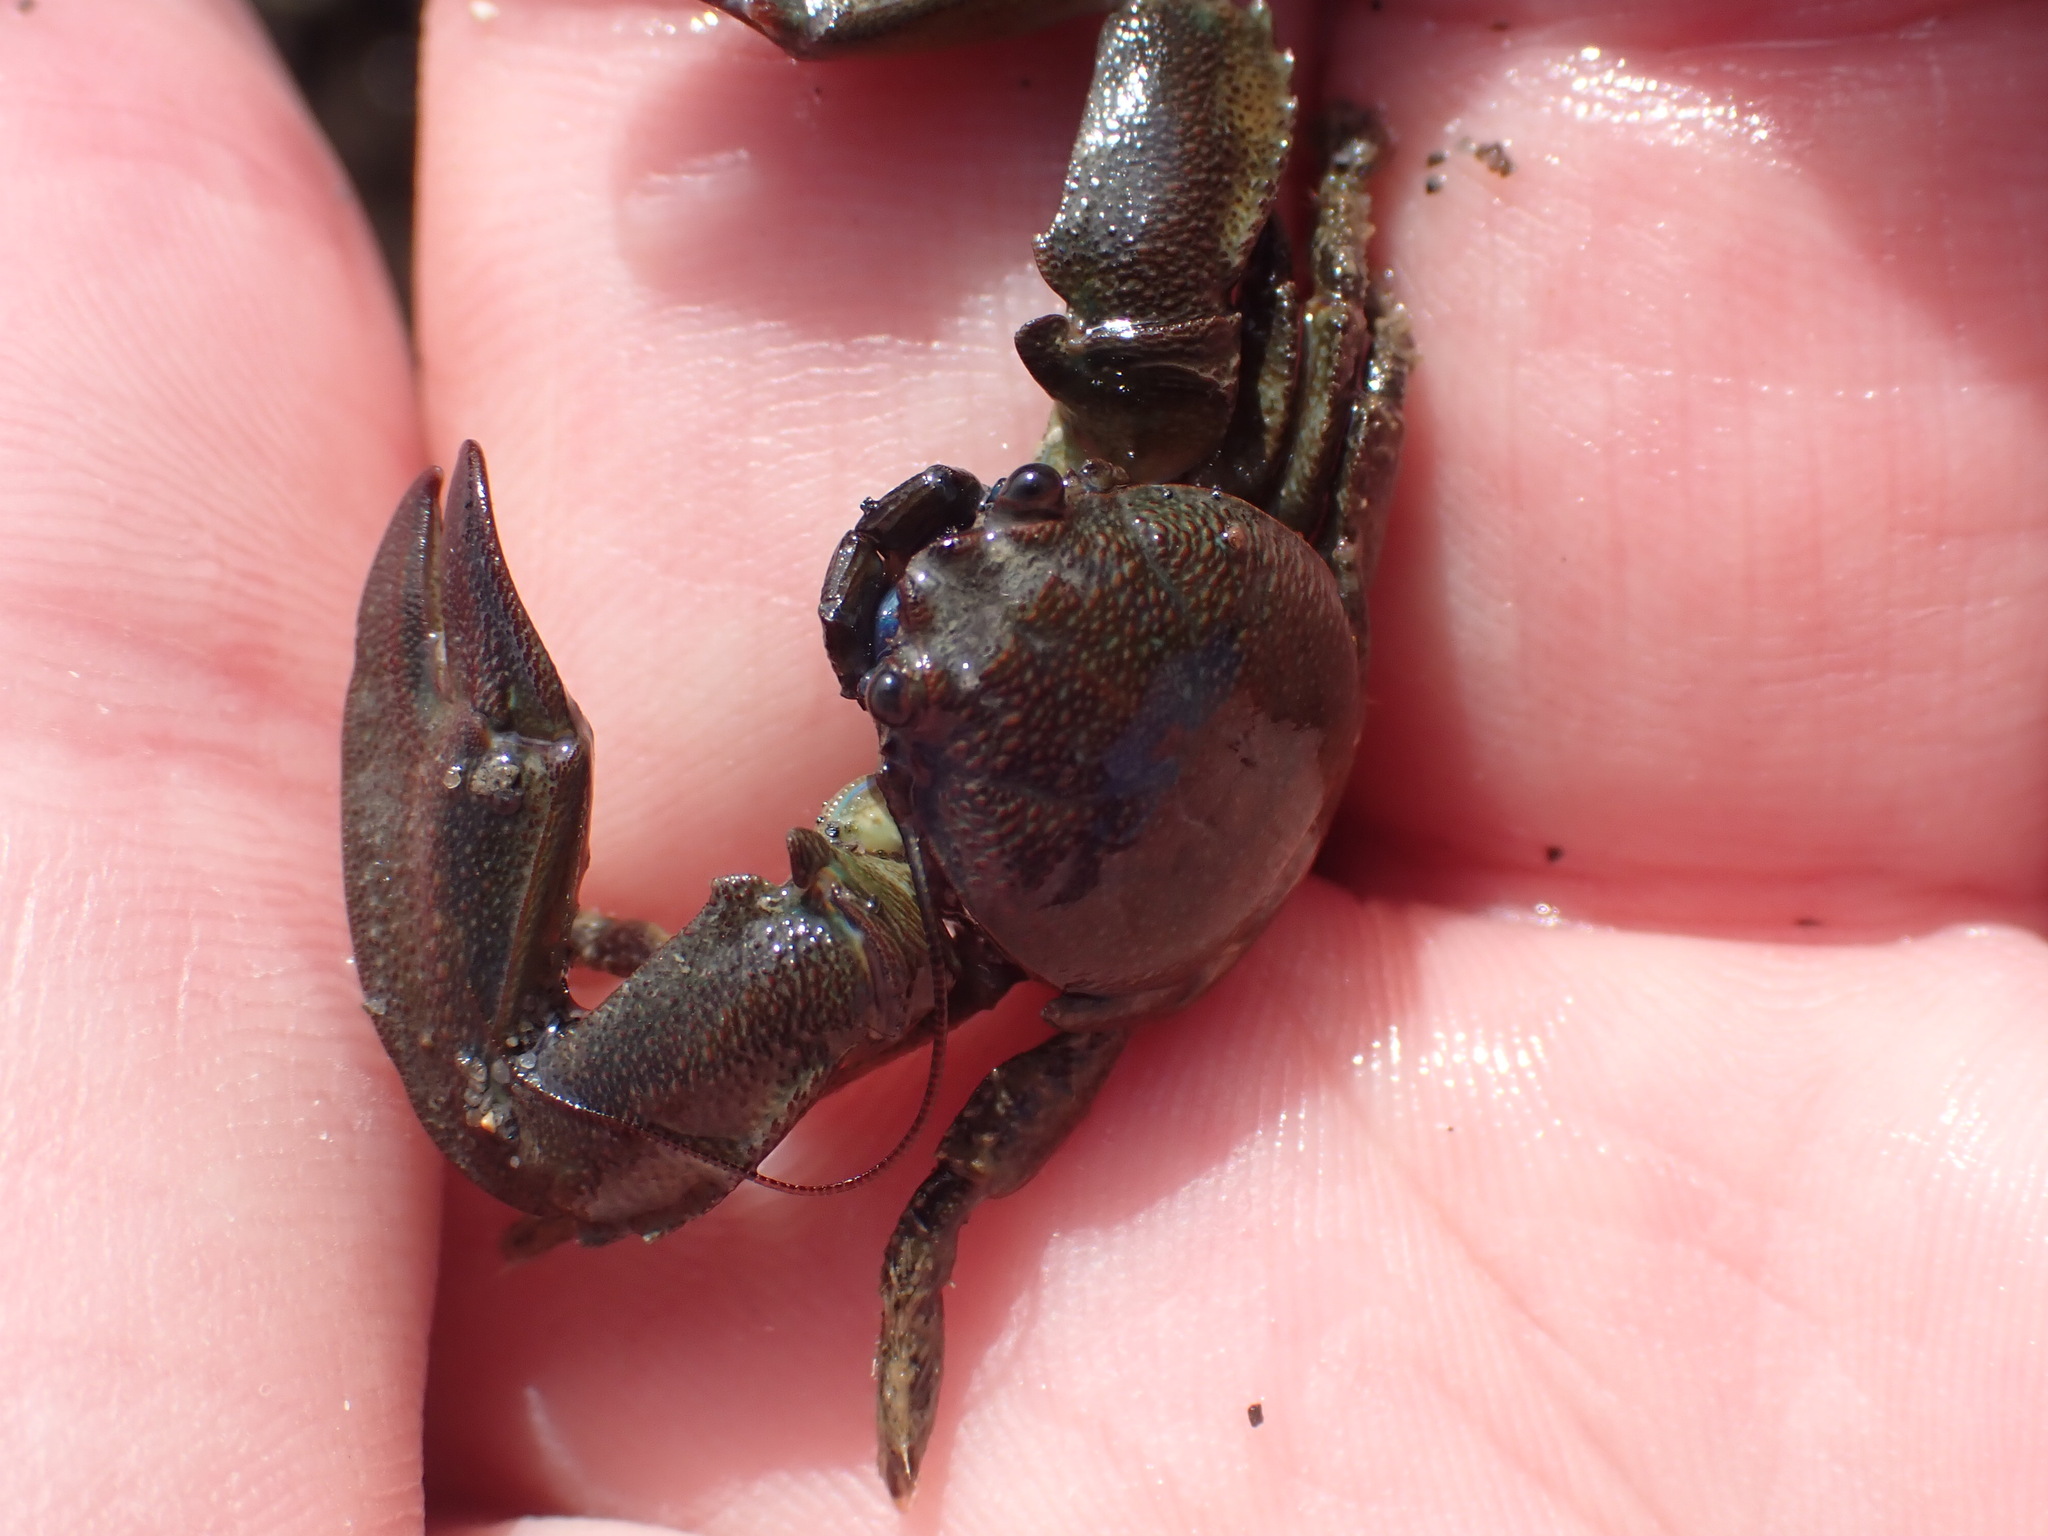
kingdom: Animalia
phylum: Arthropoda
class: Malacostraca
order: Decapoda
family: Porcellanidae
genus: Petrolisthes
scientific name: Petrolisthes elongatus
